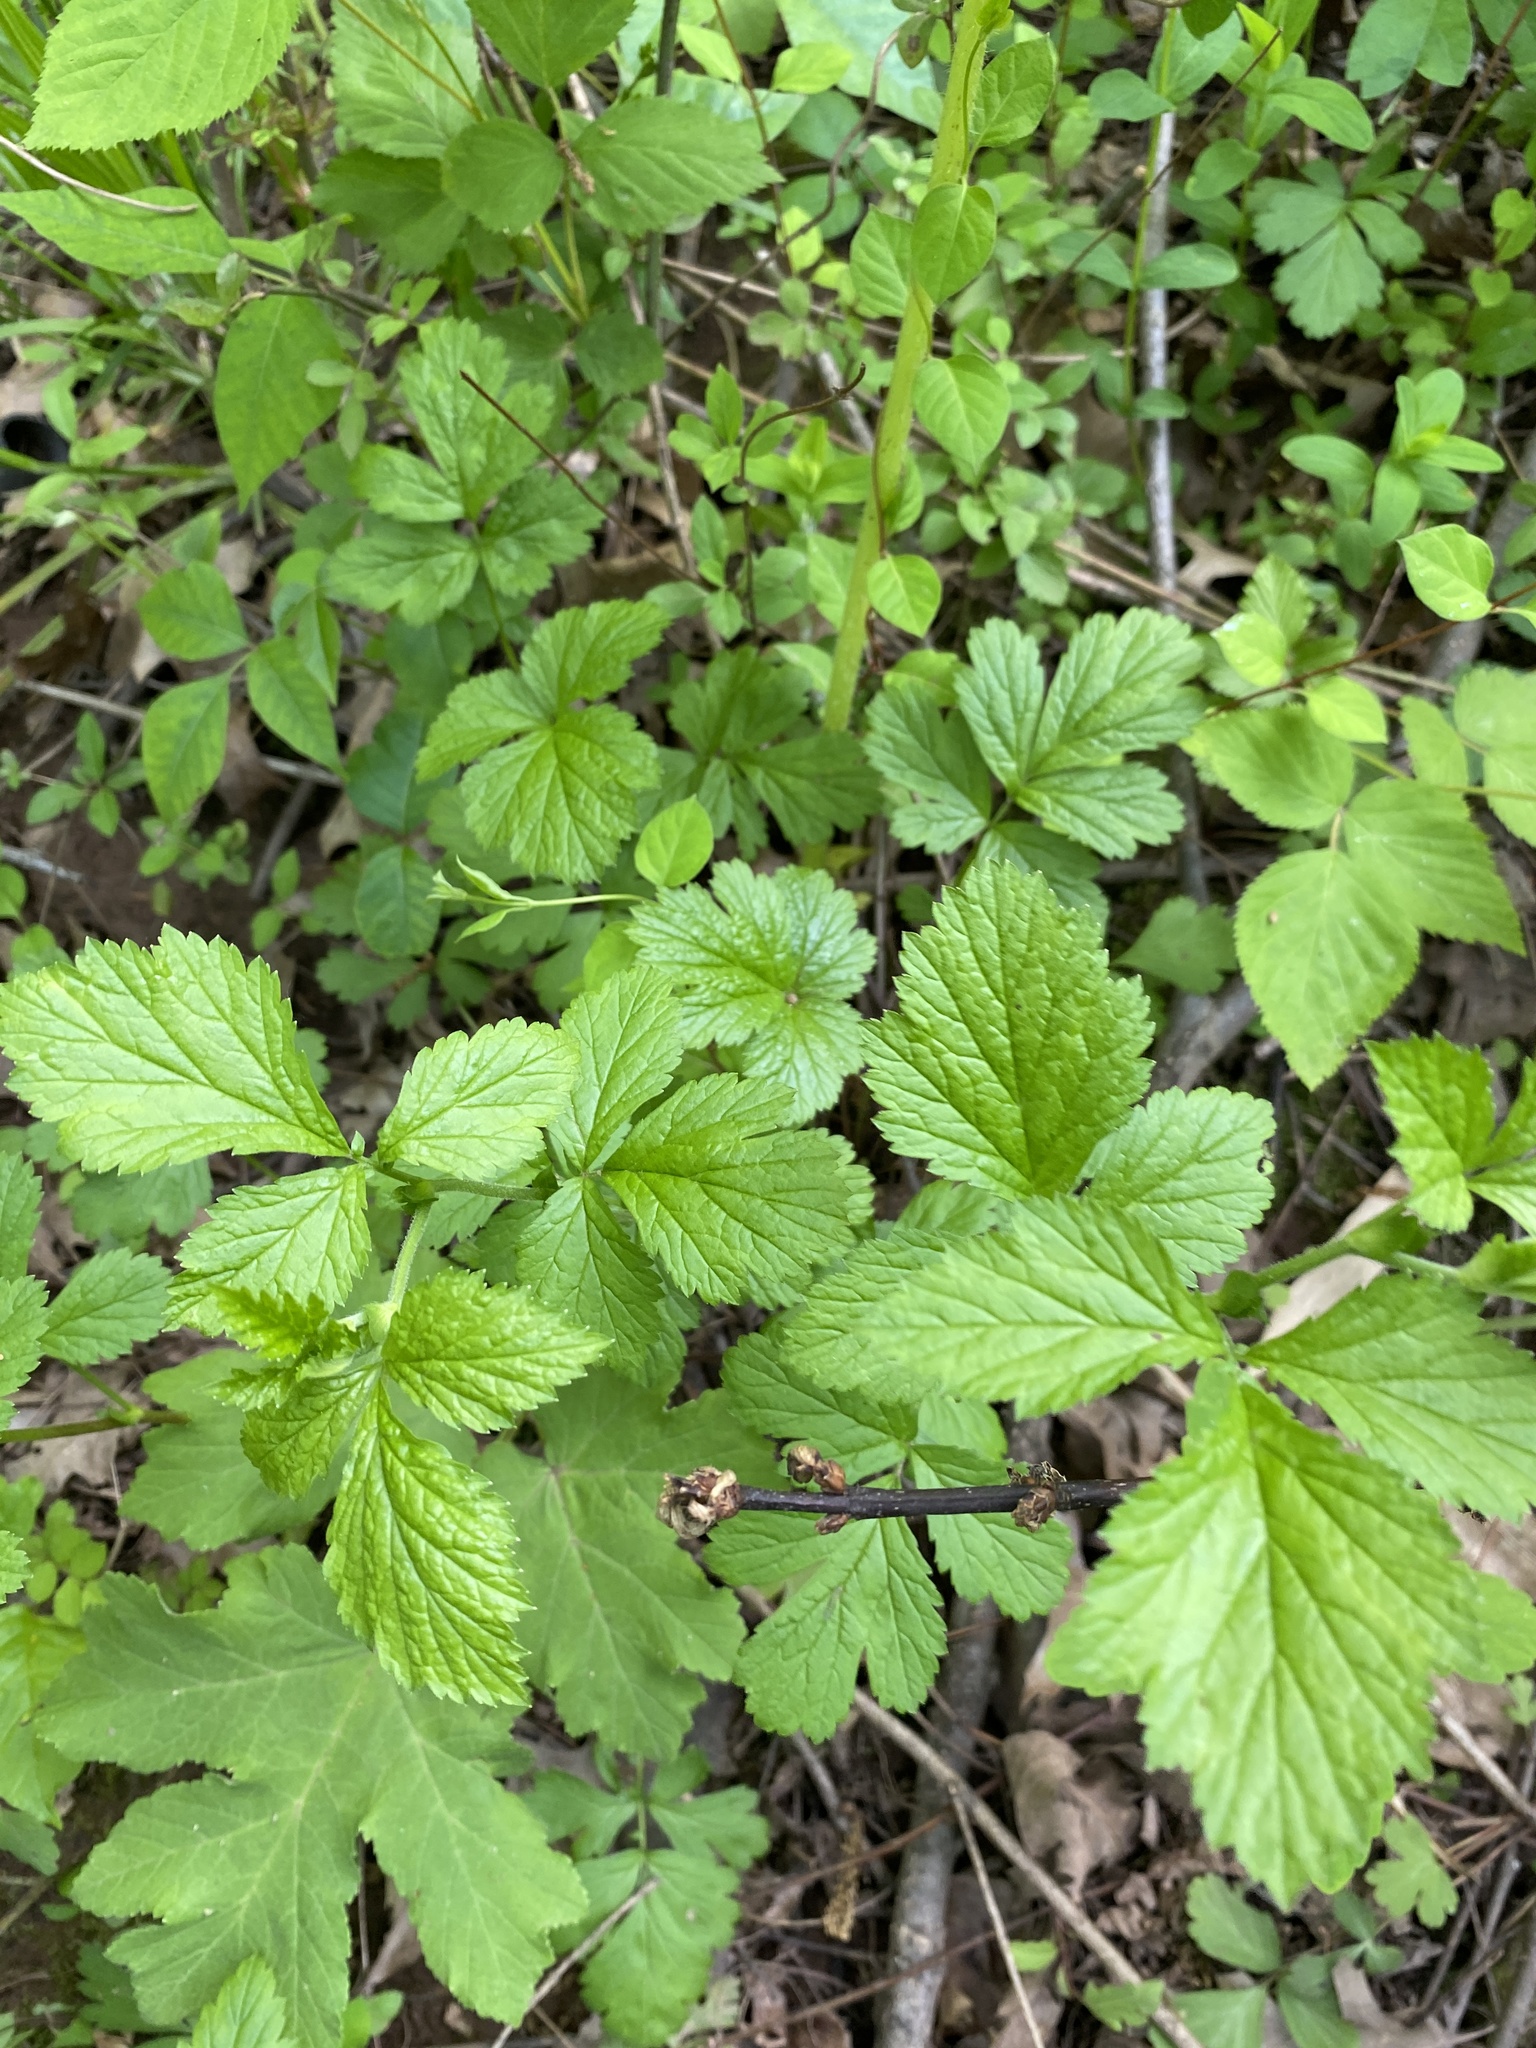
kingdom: Plantae
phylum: Tracheophyta
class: Magnoliopsida
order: Rosales
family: Rosaceae
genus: Geum
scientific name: Geum urbanum
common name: Wood avens
